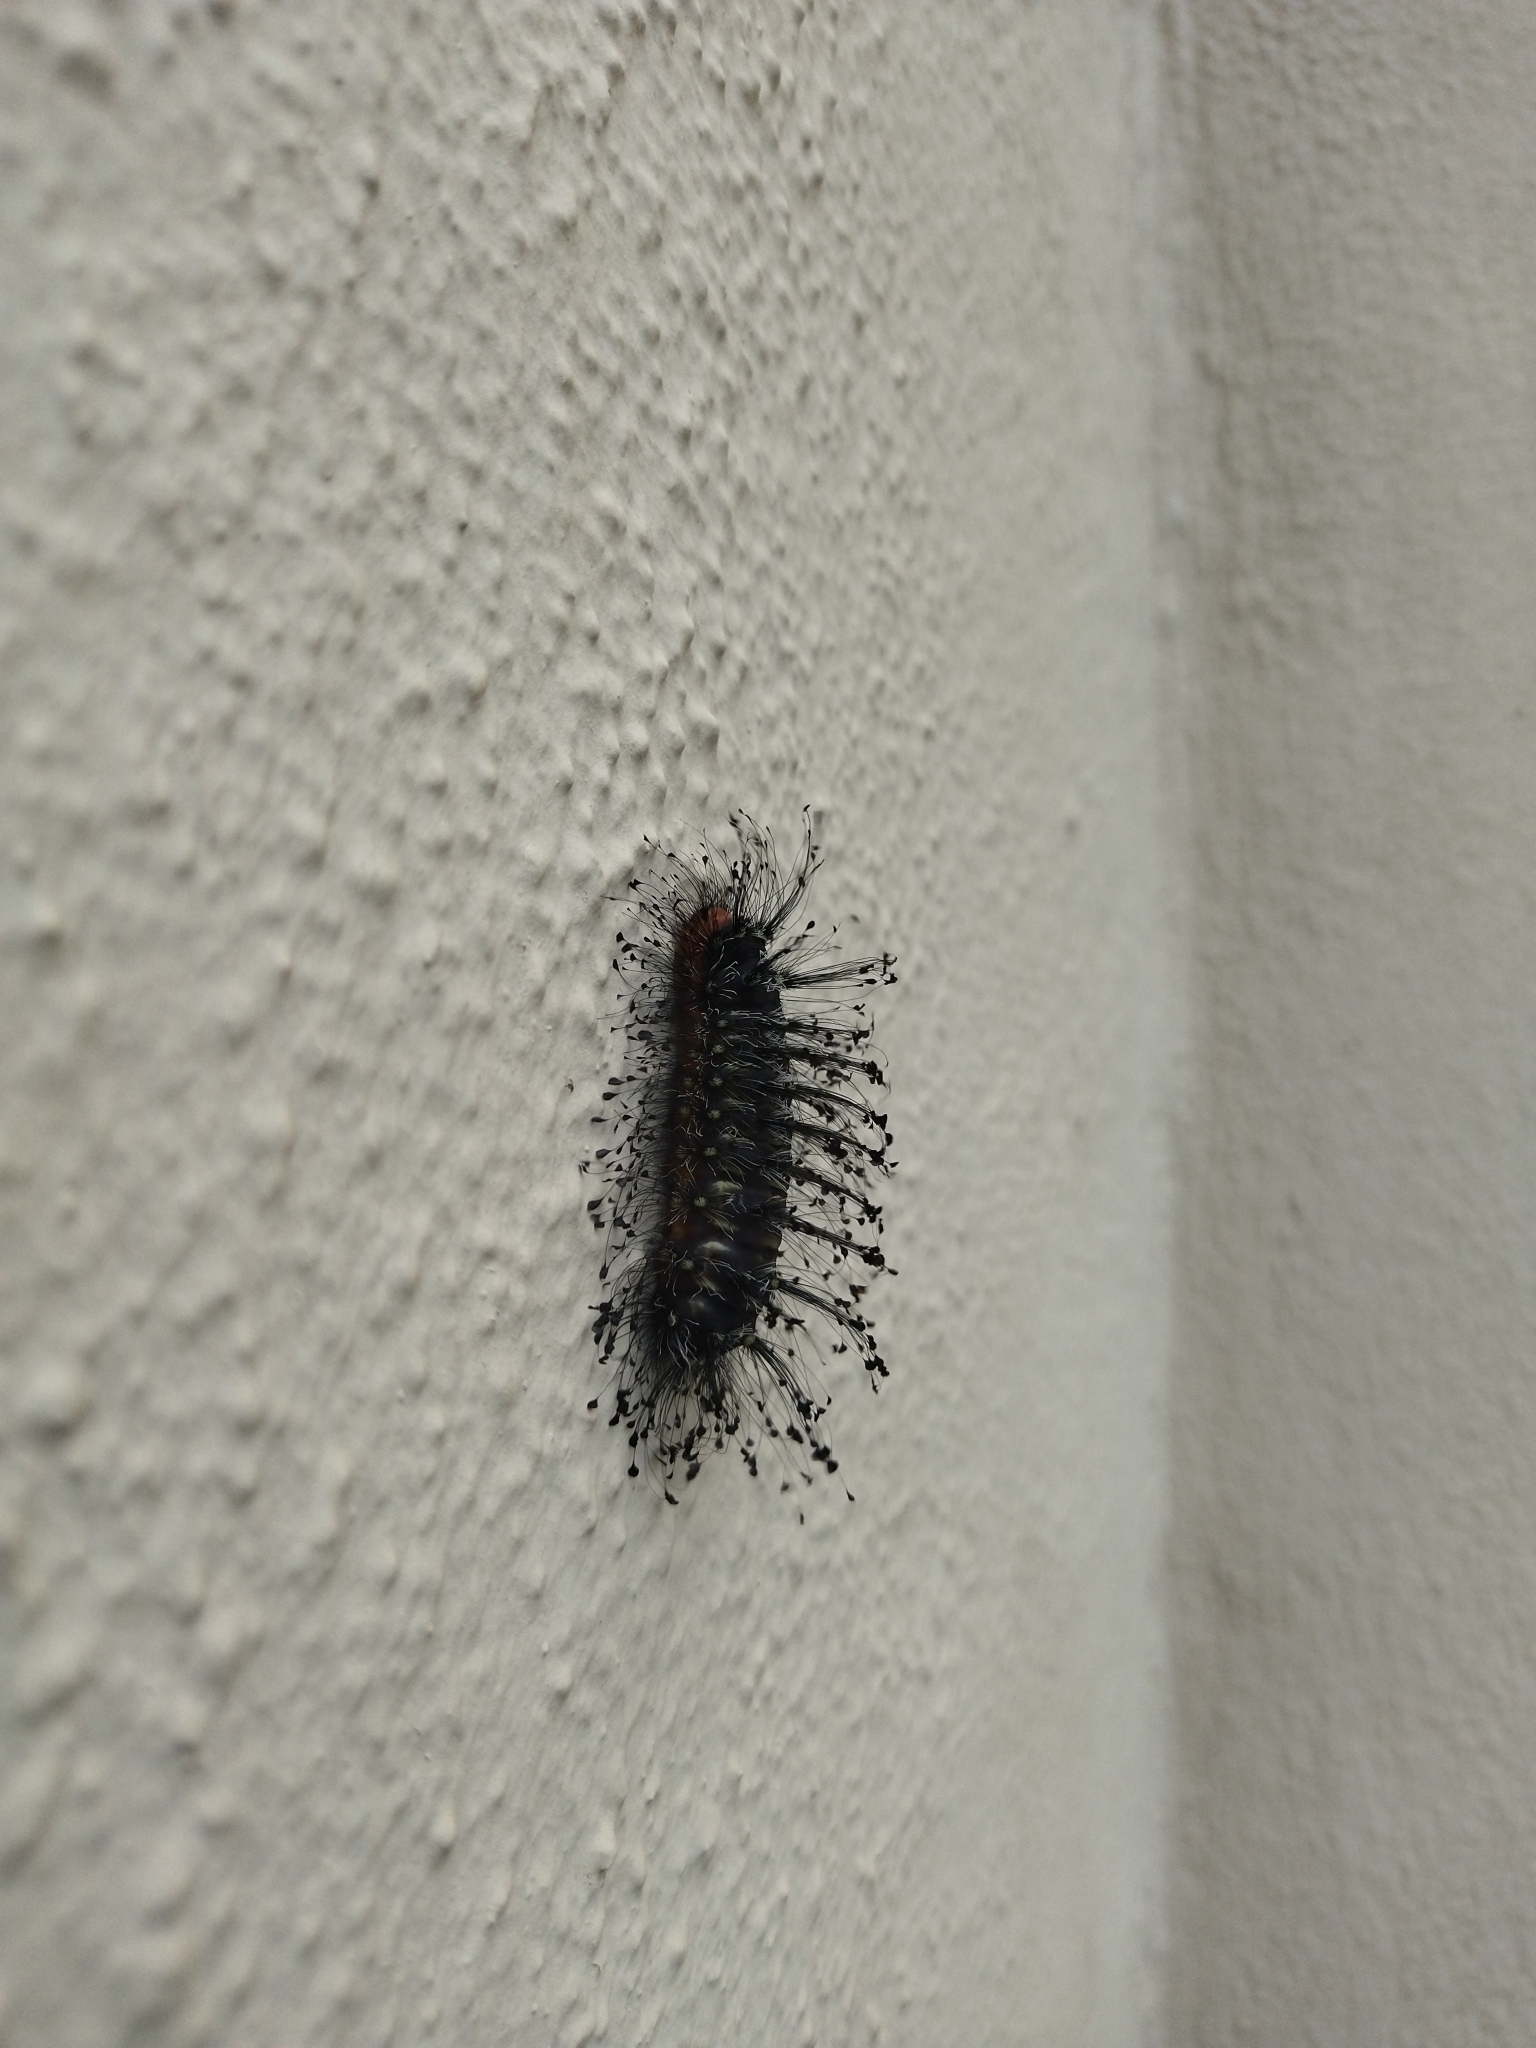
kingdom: Animalia
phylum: Arthropoda
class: Insecta
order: Lepidoptera
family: Megalopygidae
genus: Megalopyge
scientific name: Megalopyge urens
